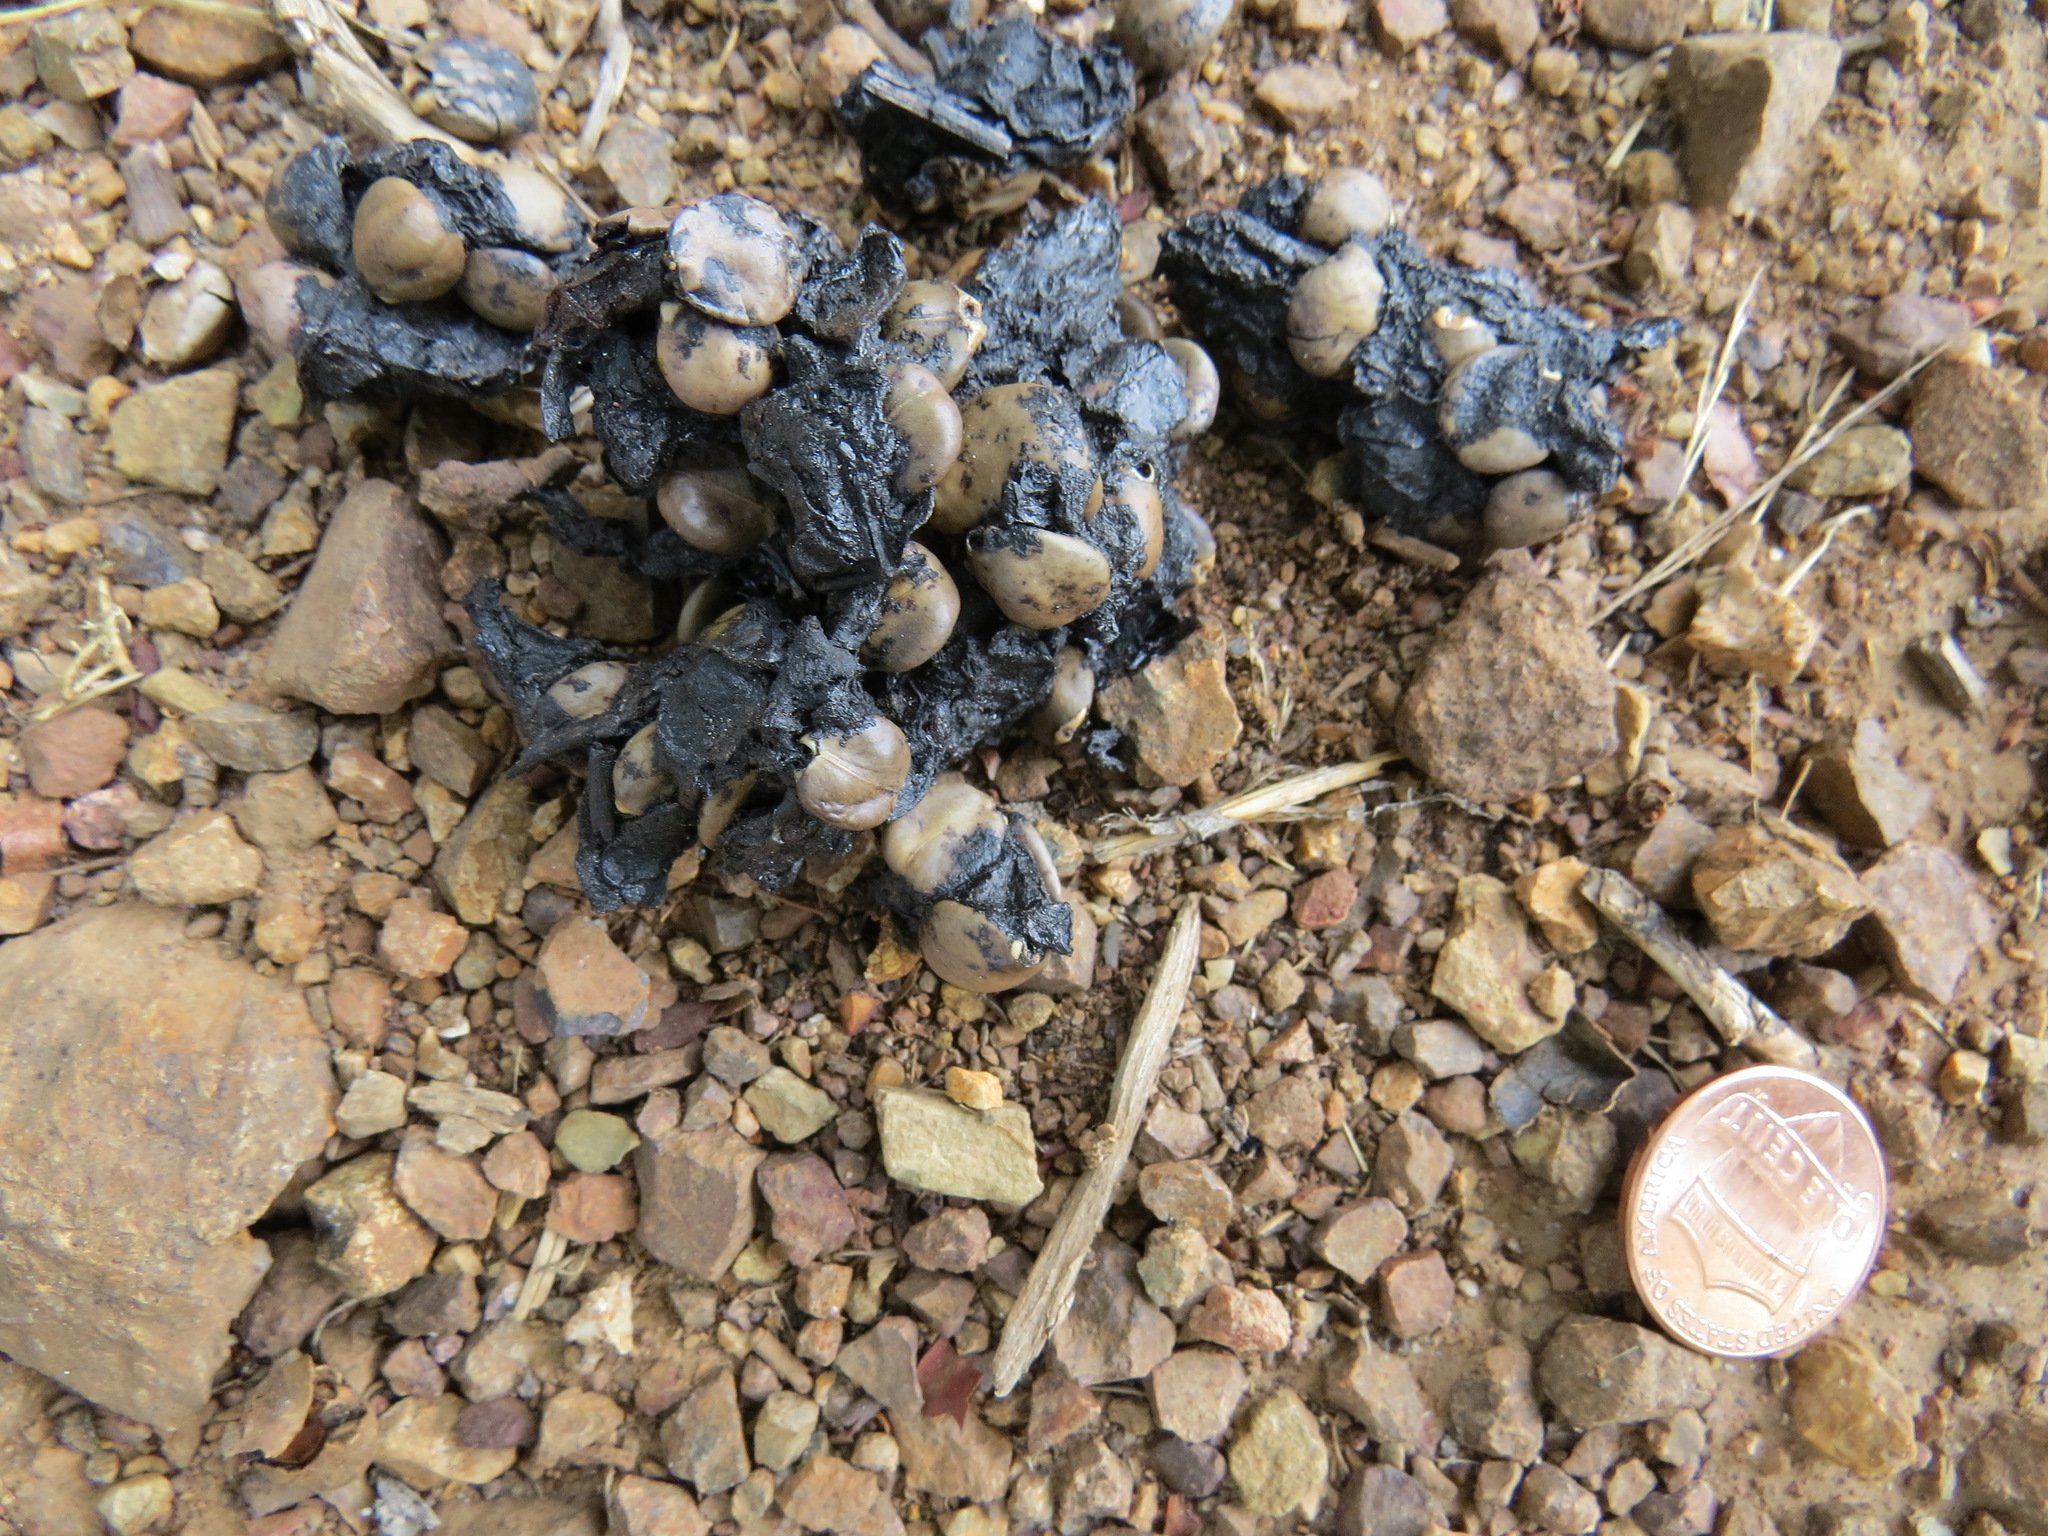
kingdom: Animalia
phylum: Chordata
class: Mammalia
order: Carnivora
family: Canidae
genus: Urocyon
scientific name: Urocyon cinereoargenteus
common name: Gray fox
